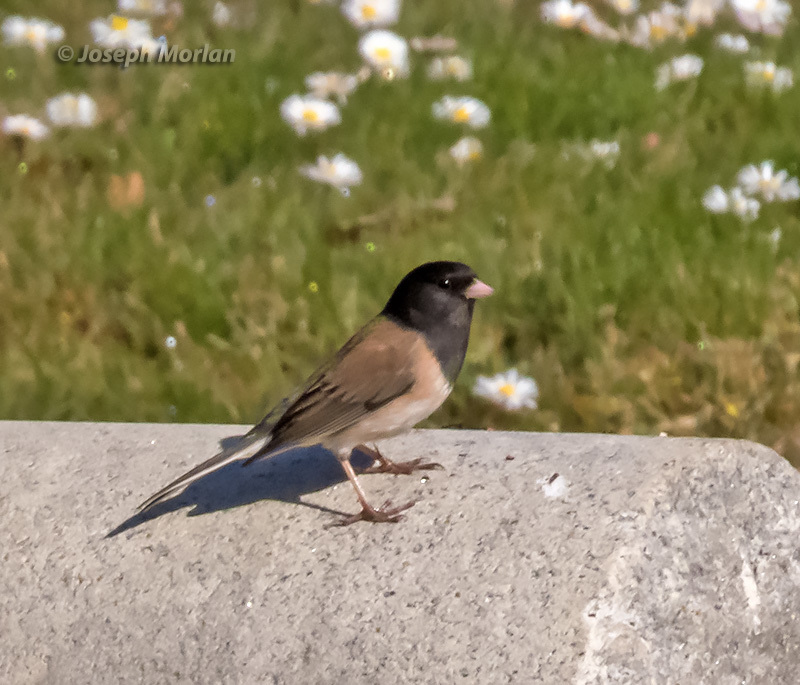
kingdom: Animalia
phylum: Chordata
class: Aves
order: Passeriformes
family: Passerellidae
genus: Junco
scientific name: Junco hyemalis
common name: Dark-eyed junco
